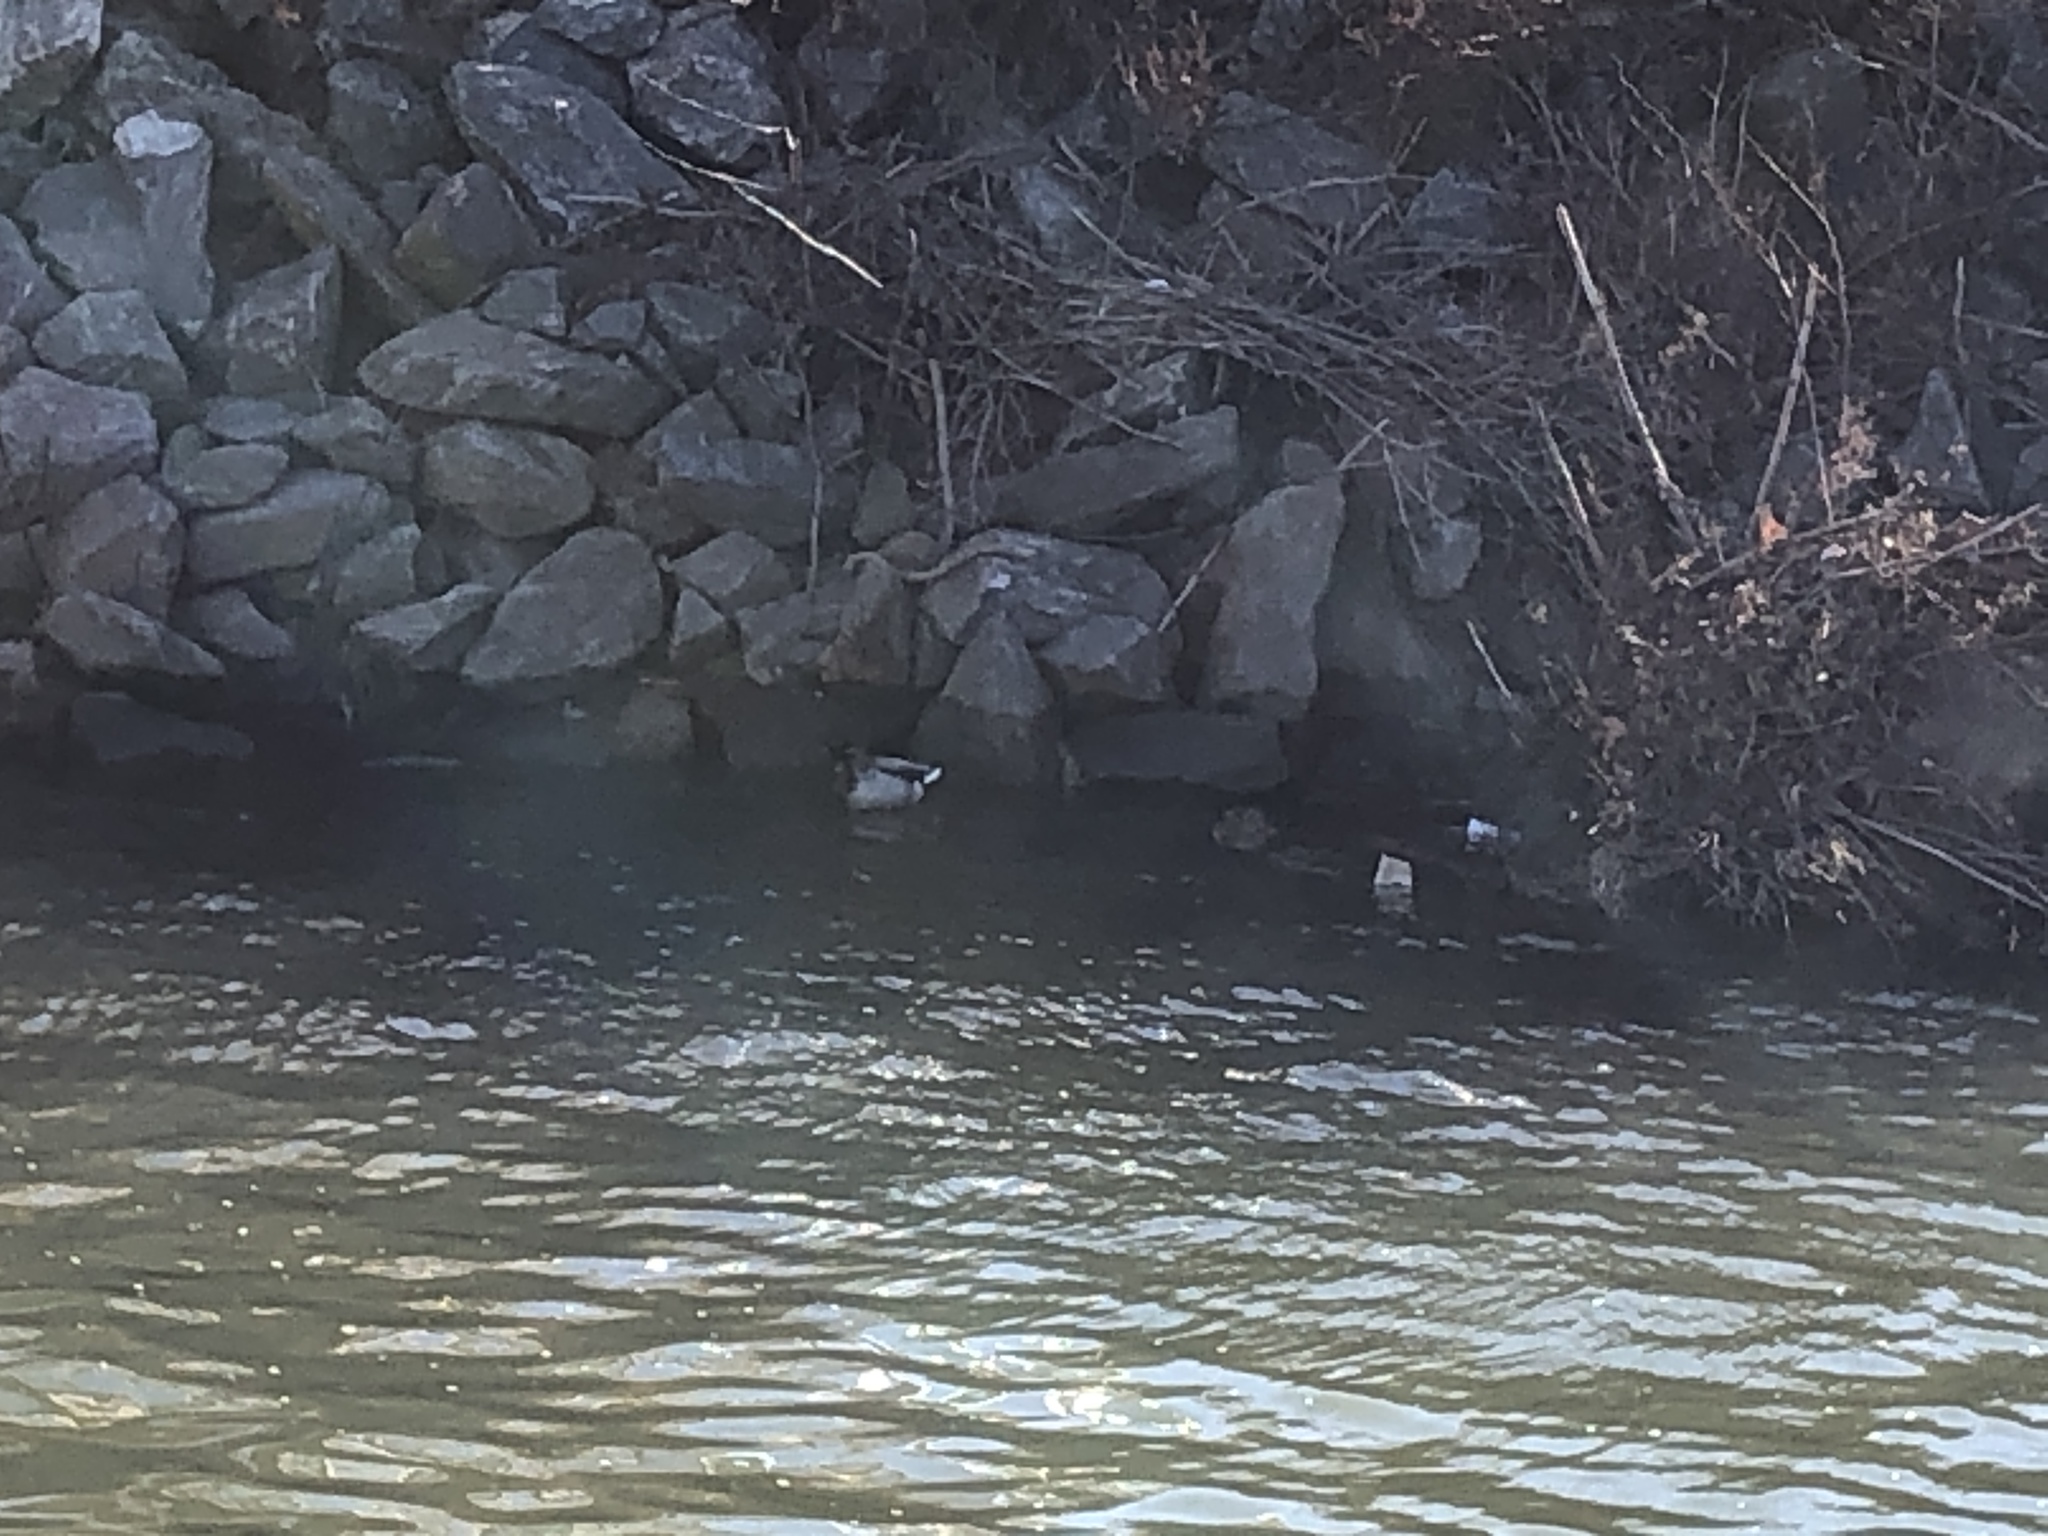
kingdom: Animalia
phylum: Chordata
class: Aves
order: Anseriformes
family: Anatidae
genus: Anas
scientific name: Anas platyrhynchos
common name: Mallard
